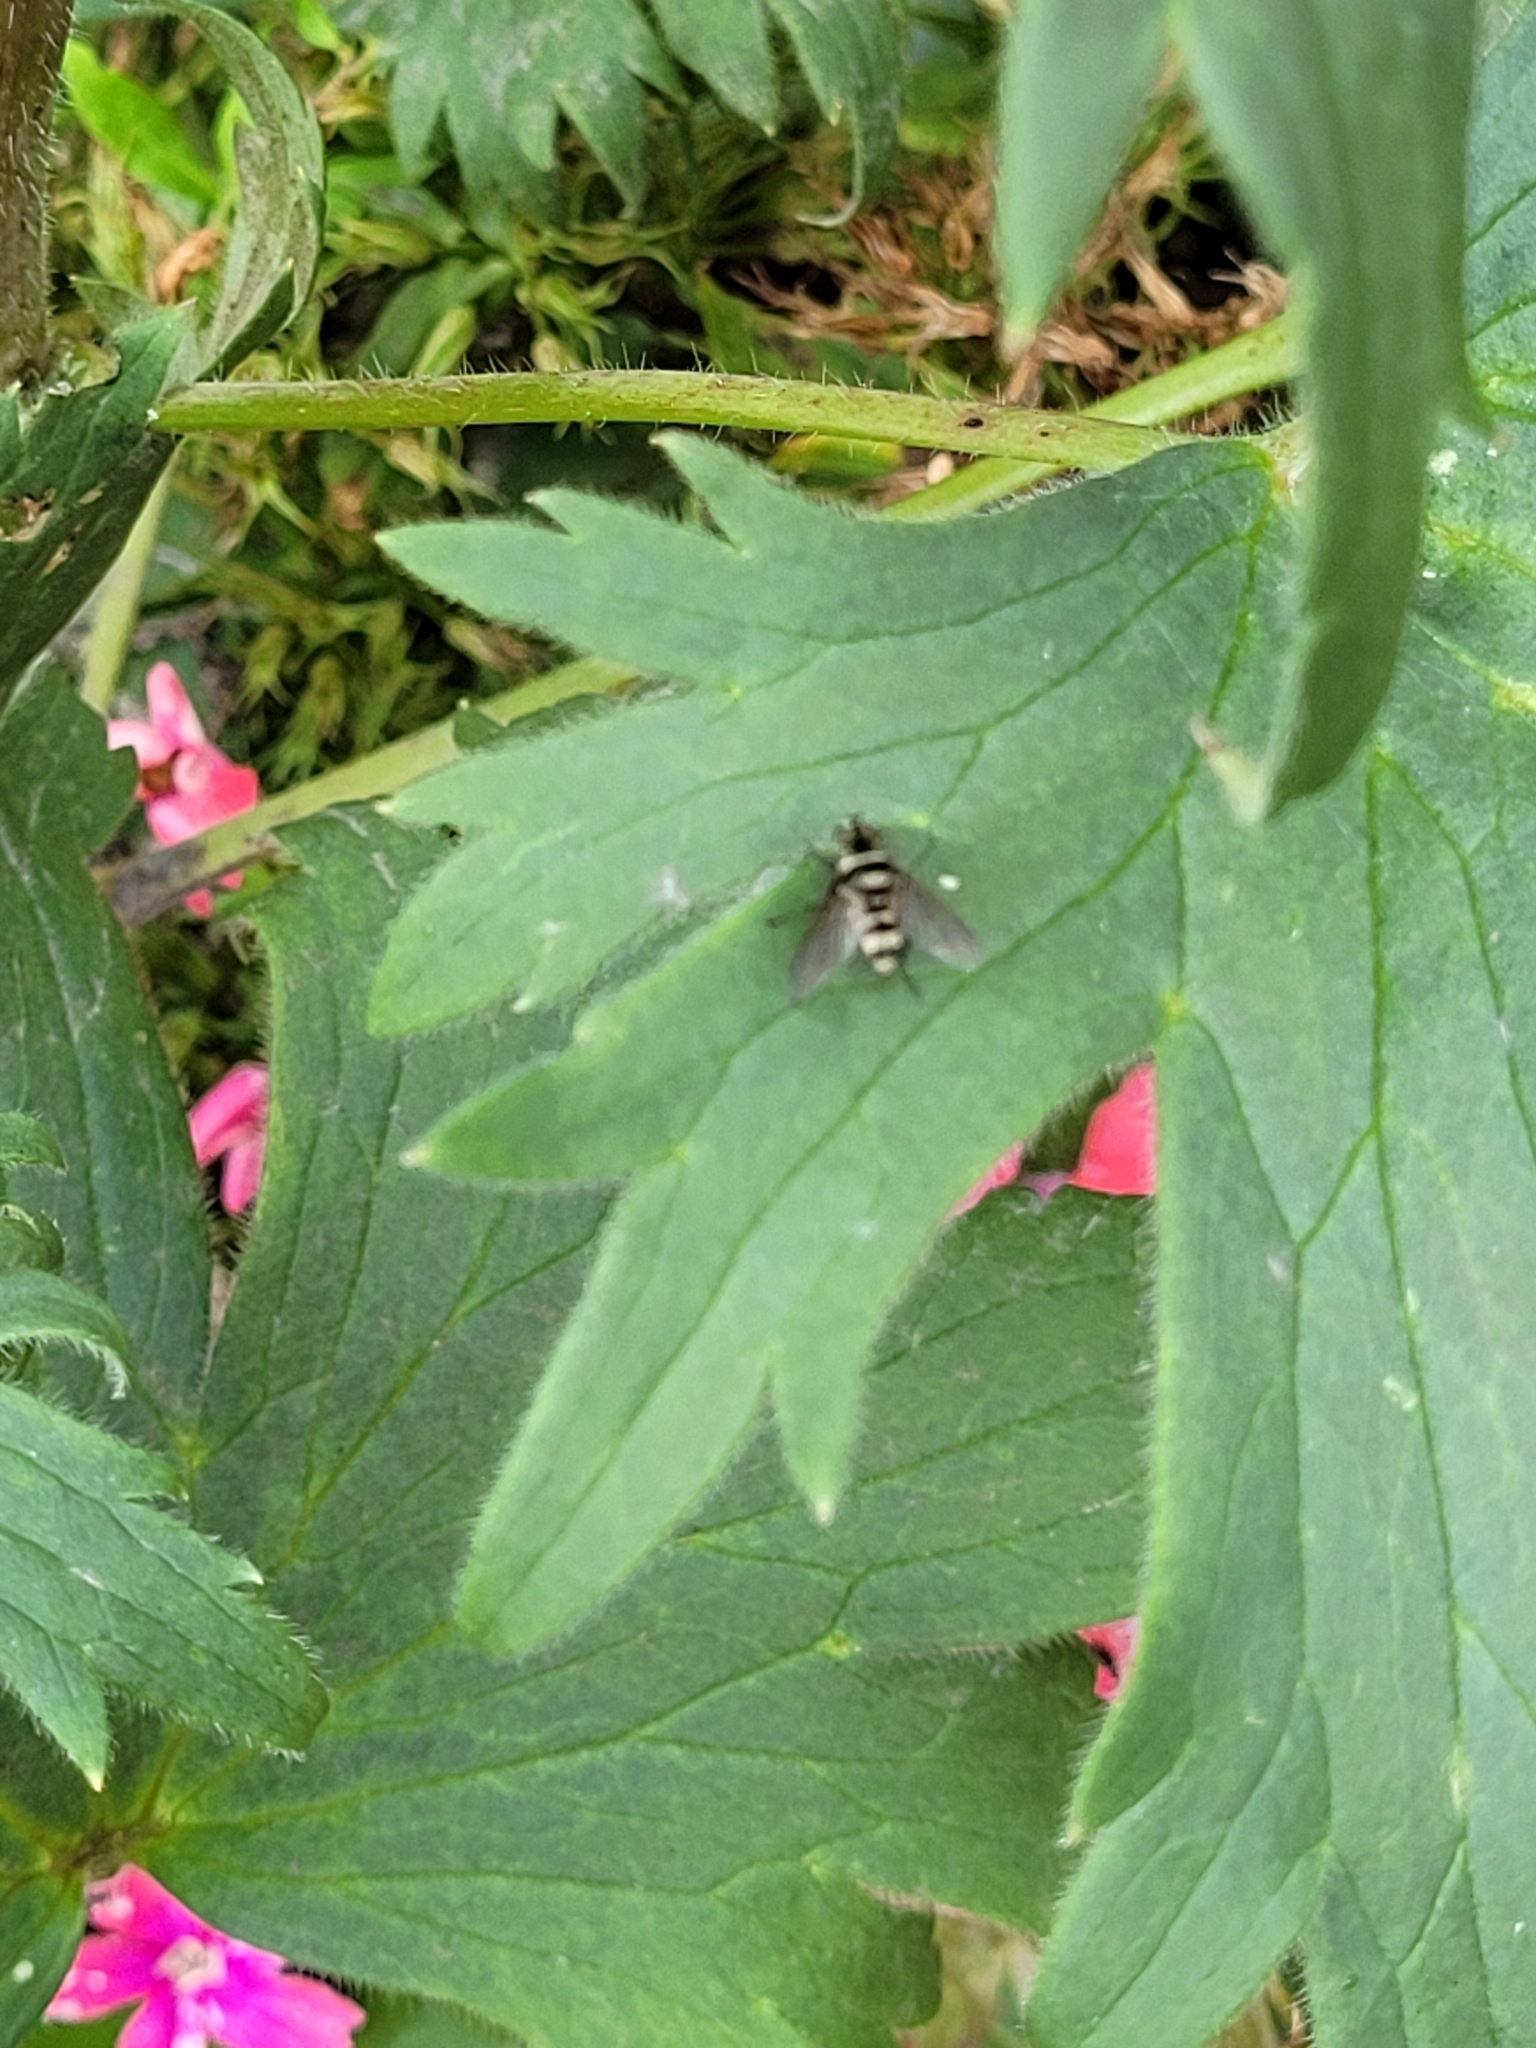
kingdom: Animalia
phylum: Arthropoda
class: Insecta
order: Diptera
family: Tachinidae
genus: Trigonospila
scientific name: Trigonospila brevifacies
